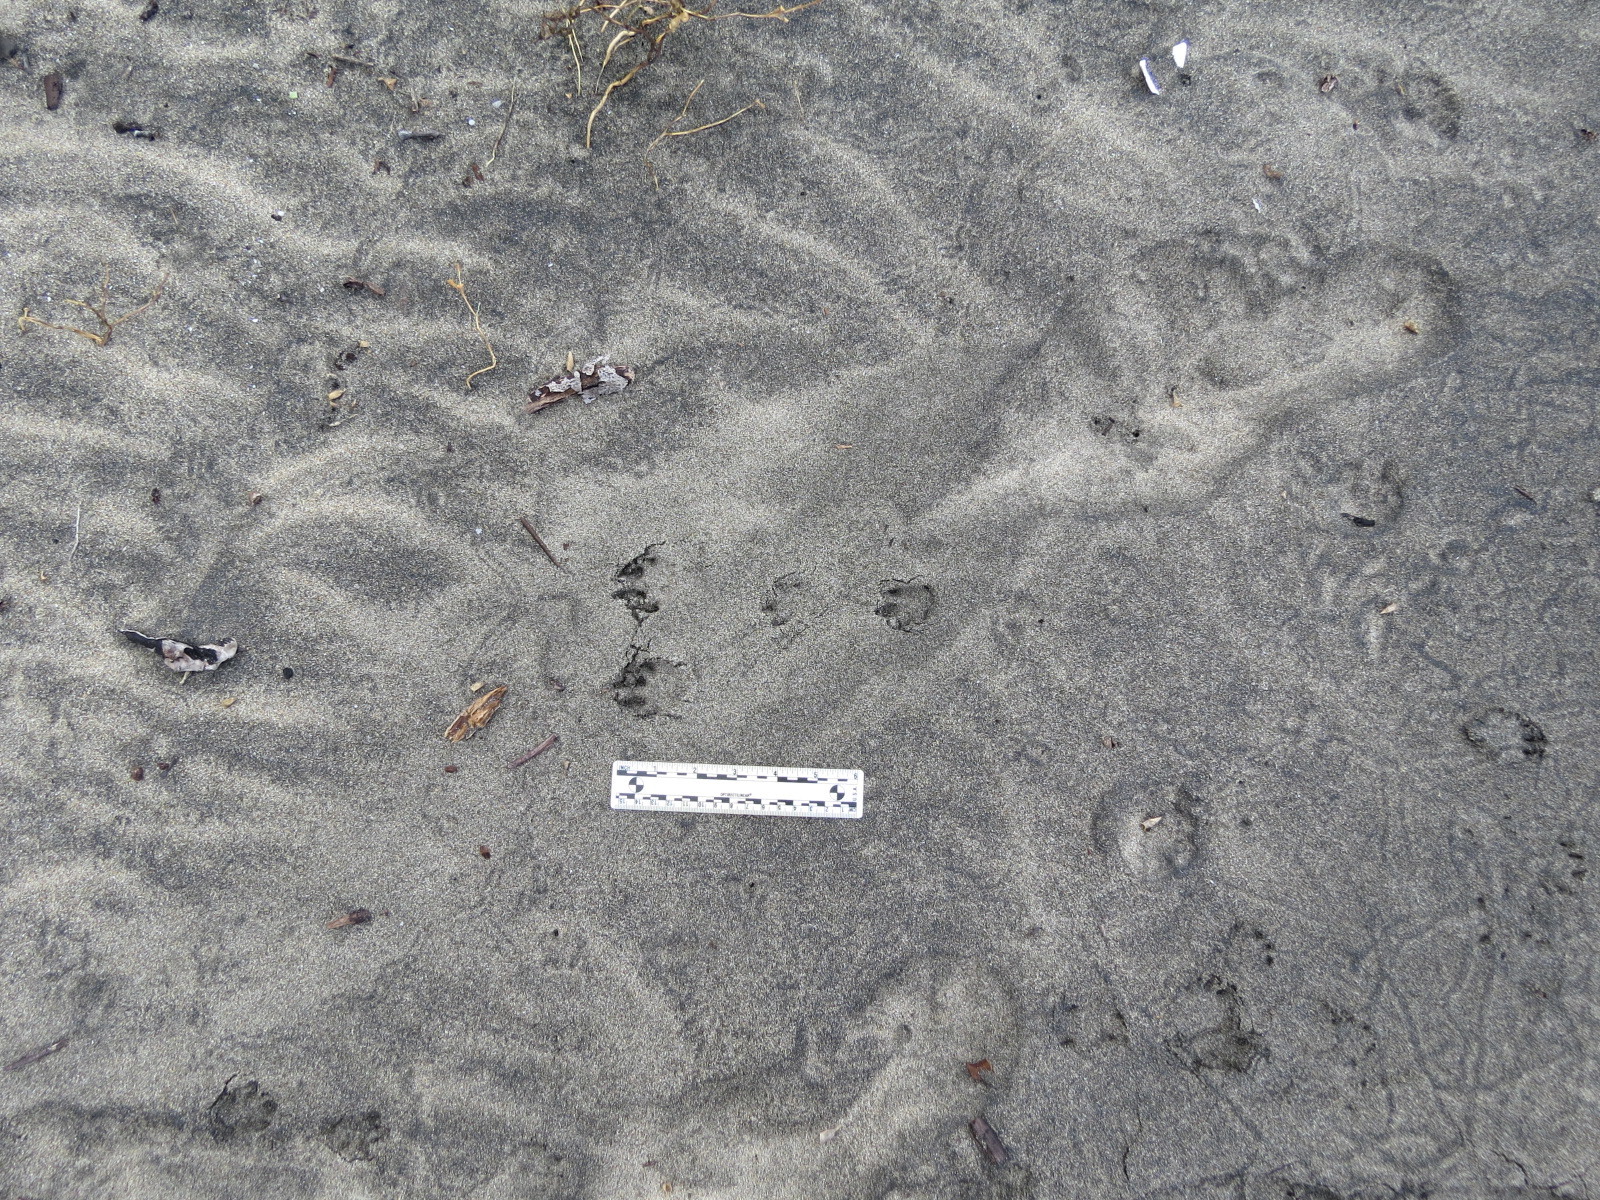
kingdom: Animalia
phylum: Chordata
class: Mammalia
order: Lagomorpha
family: Leporidae
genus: Sylvilagus
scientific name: Sylvilagus bachmani
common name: Brush rabbit
